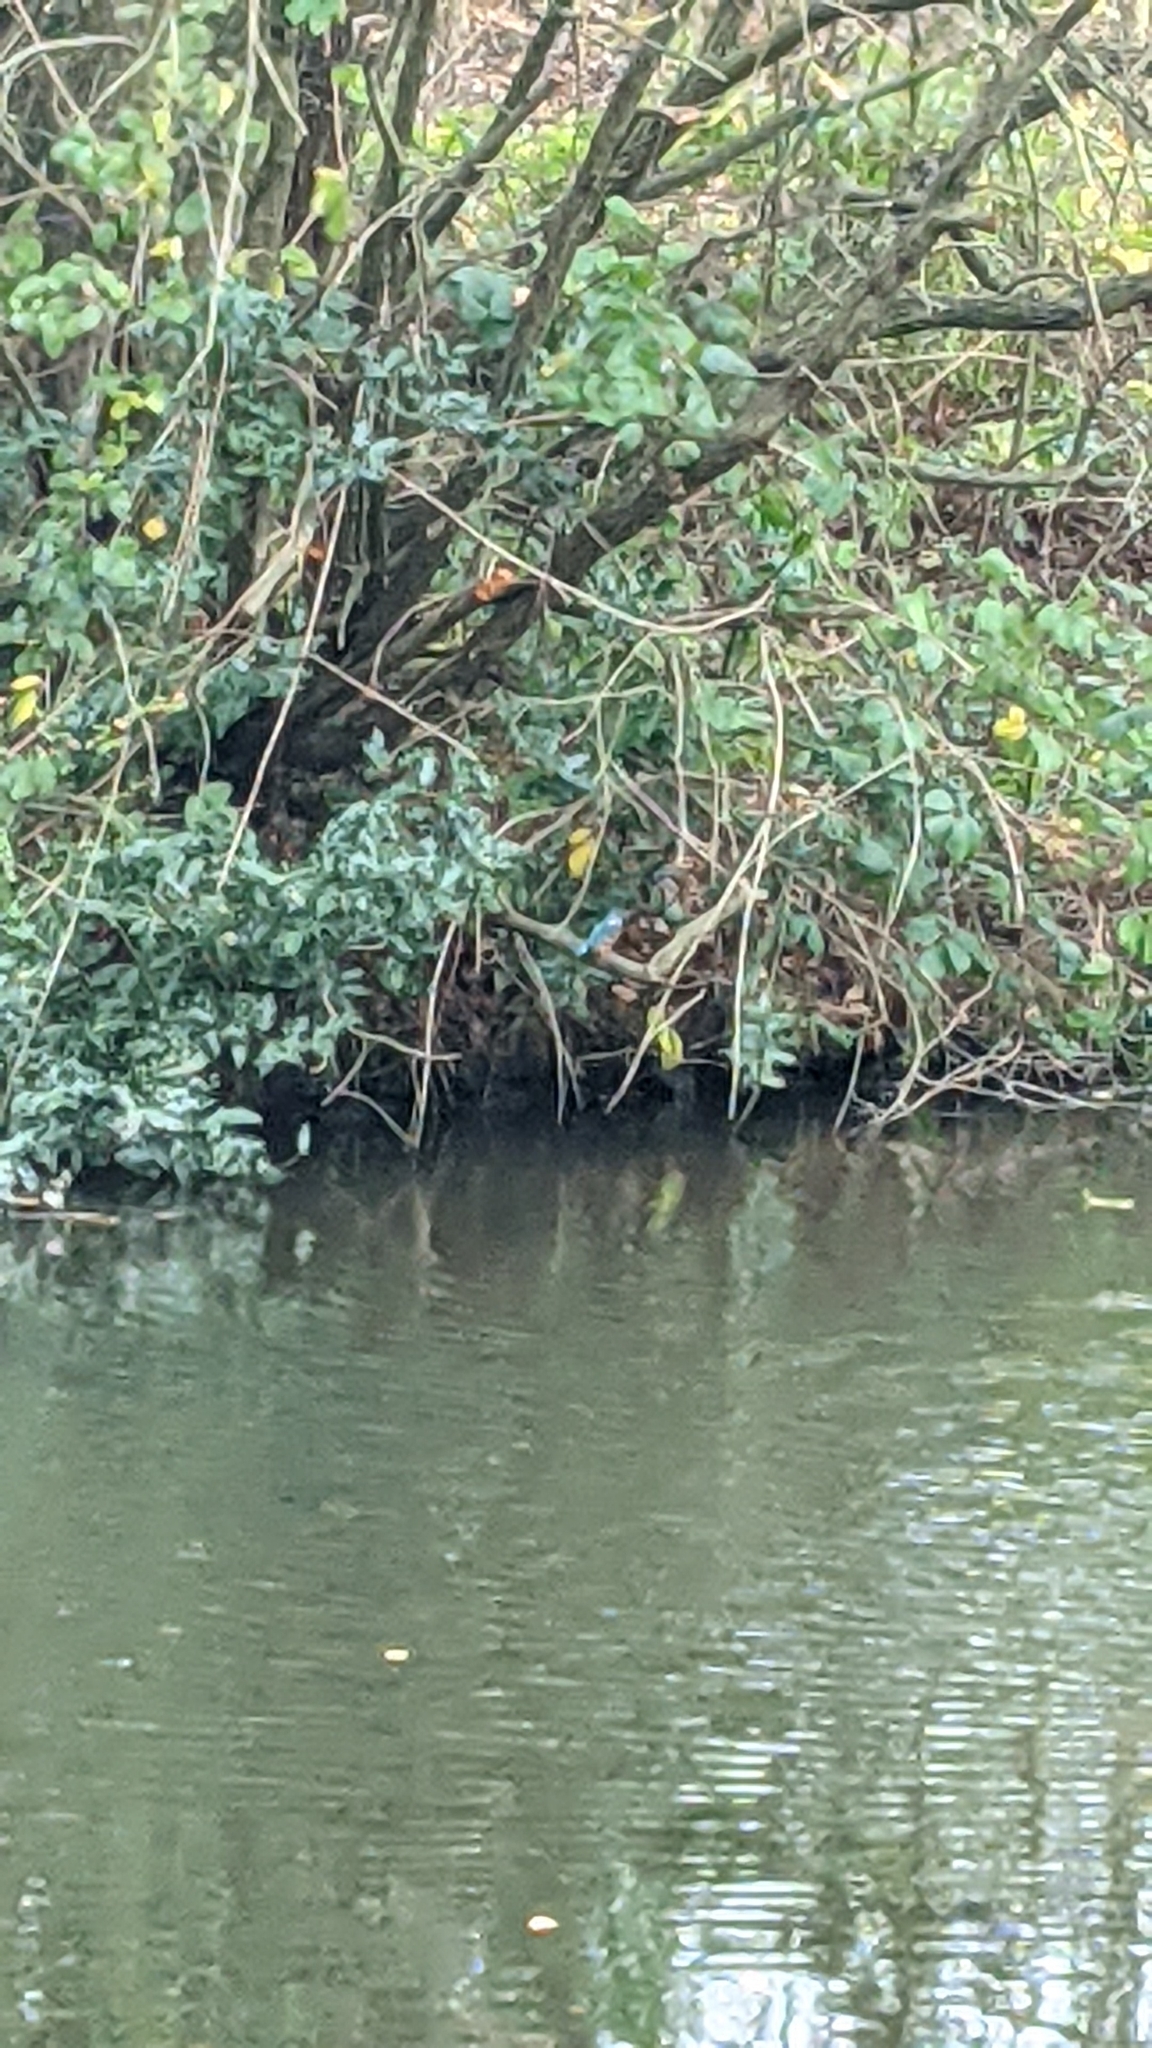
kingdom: Animalia
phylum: Chordata
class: Aves
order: Coraciiformes
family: Alcedinidae
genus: Alcedo
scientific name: Alcedo atthis
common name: Common kingfisher
